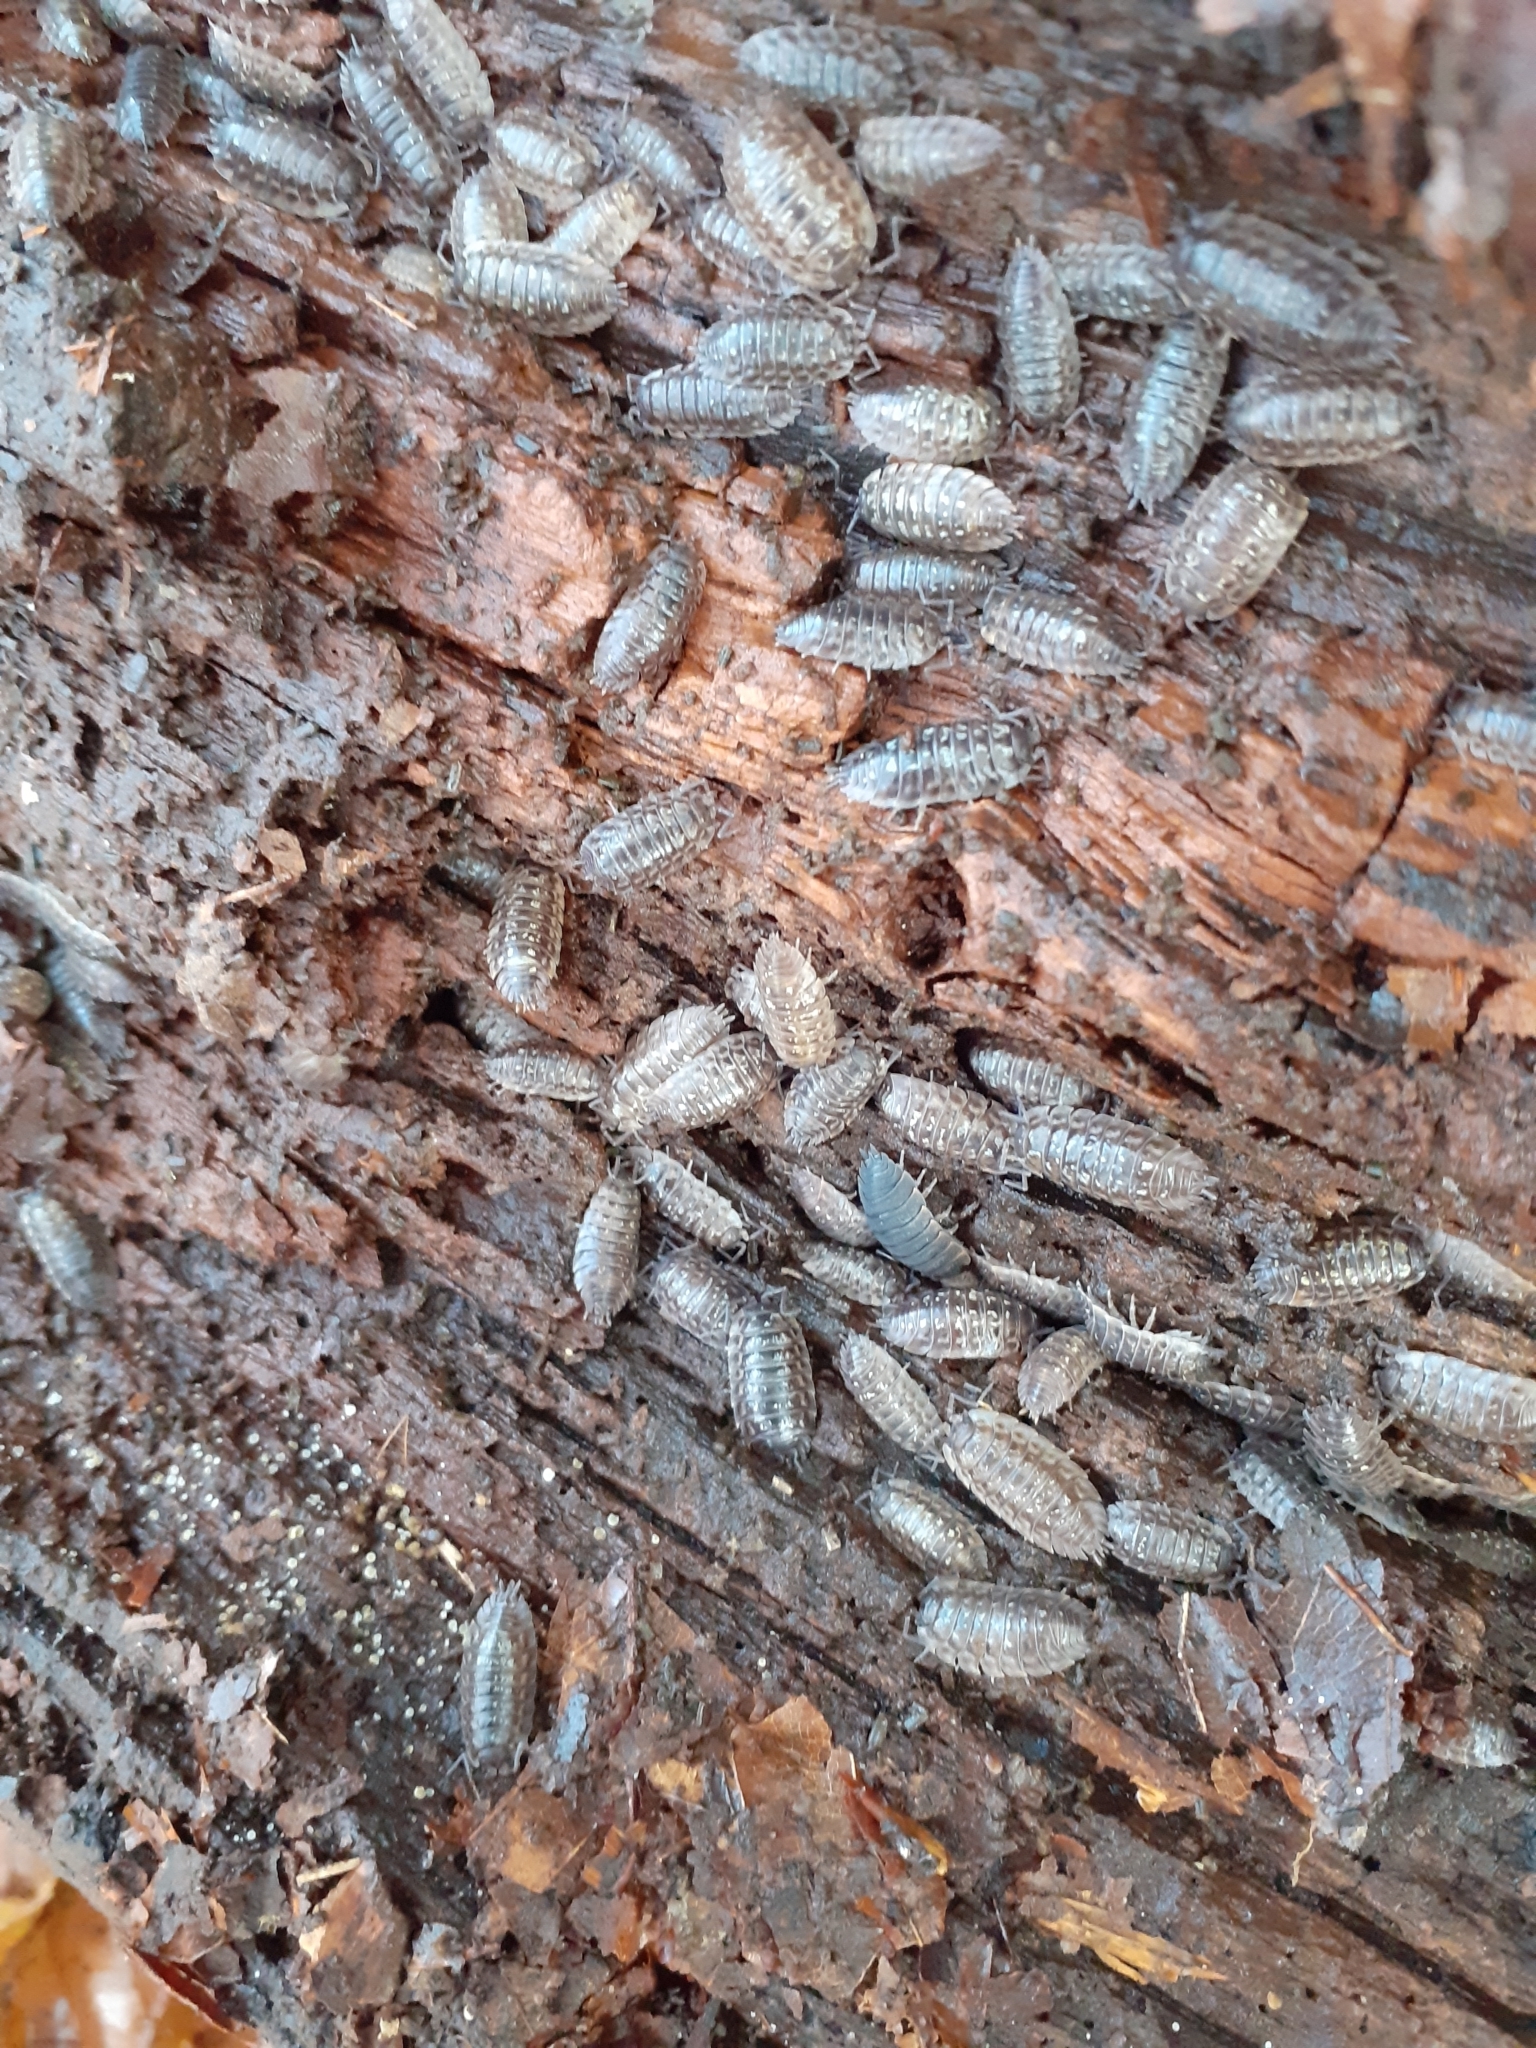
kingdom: Animalia
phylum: Arthropoda
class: Malacostraca
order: Isopoda
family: Porcellionidae
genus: Porcellio
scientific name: Porcellio scaber
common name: Common rough woodlouse
